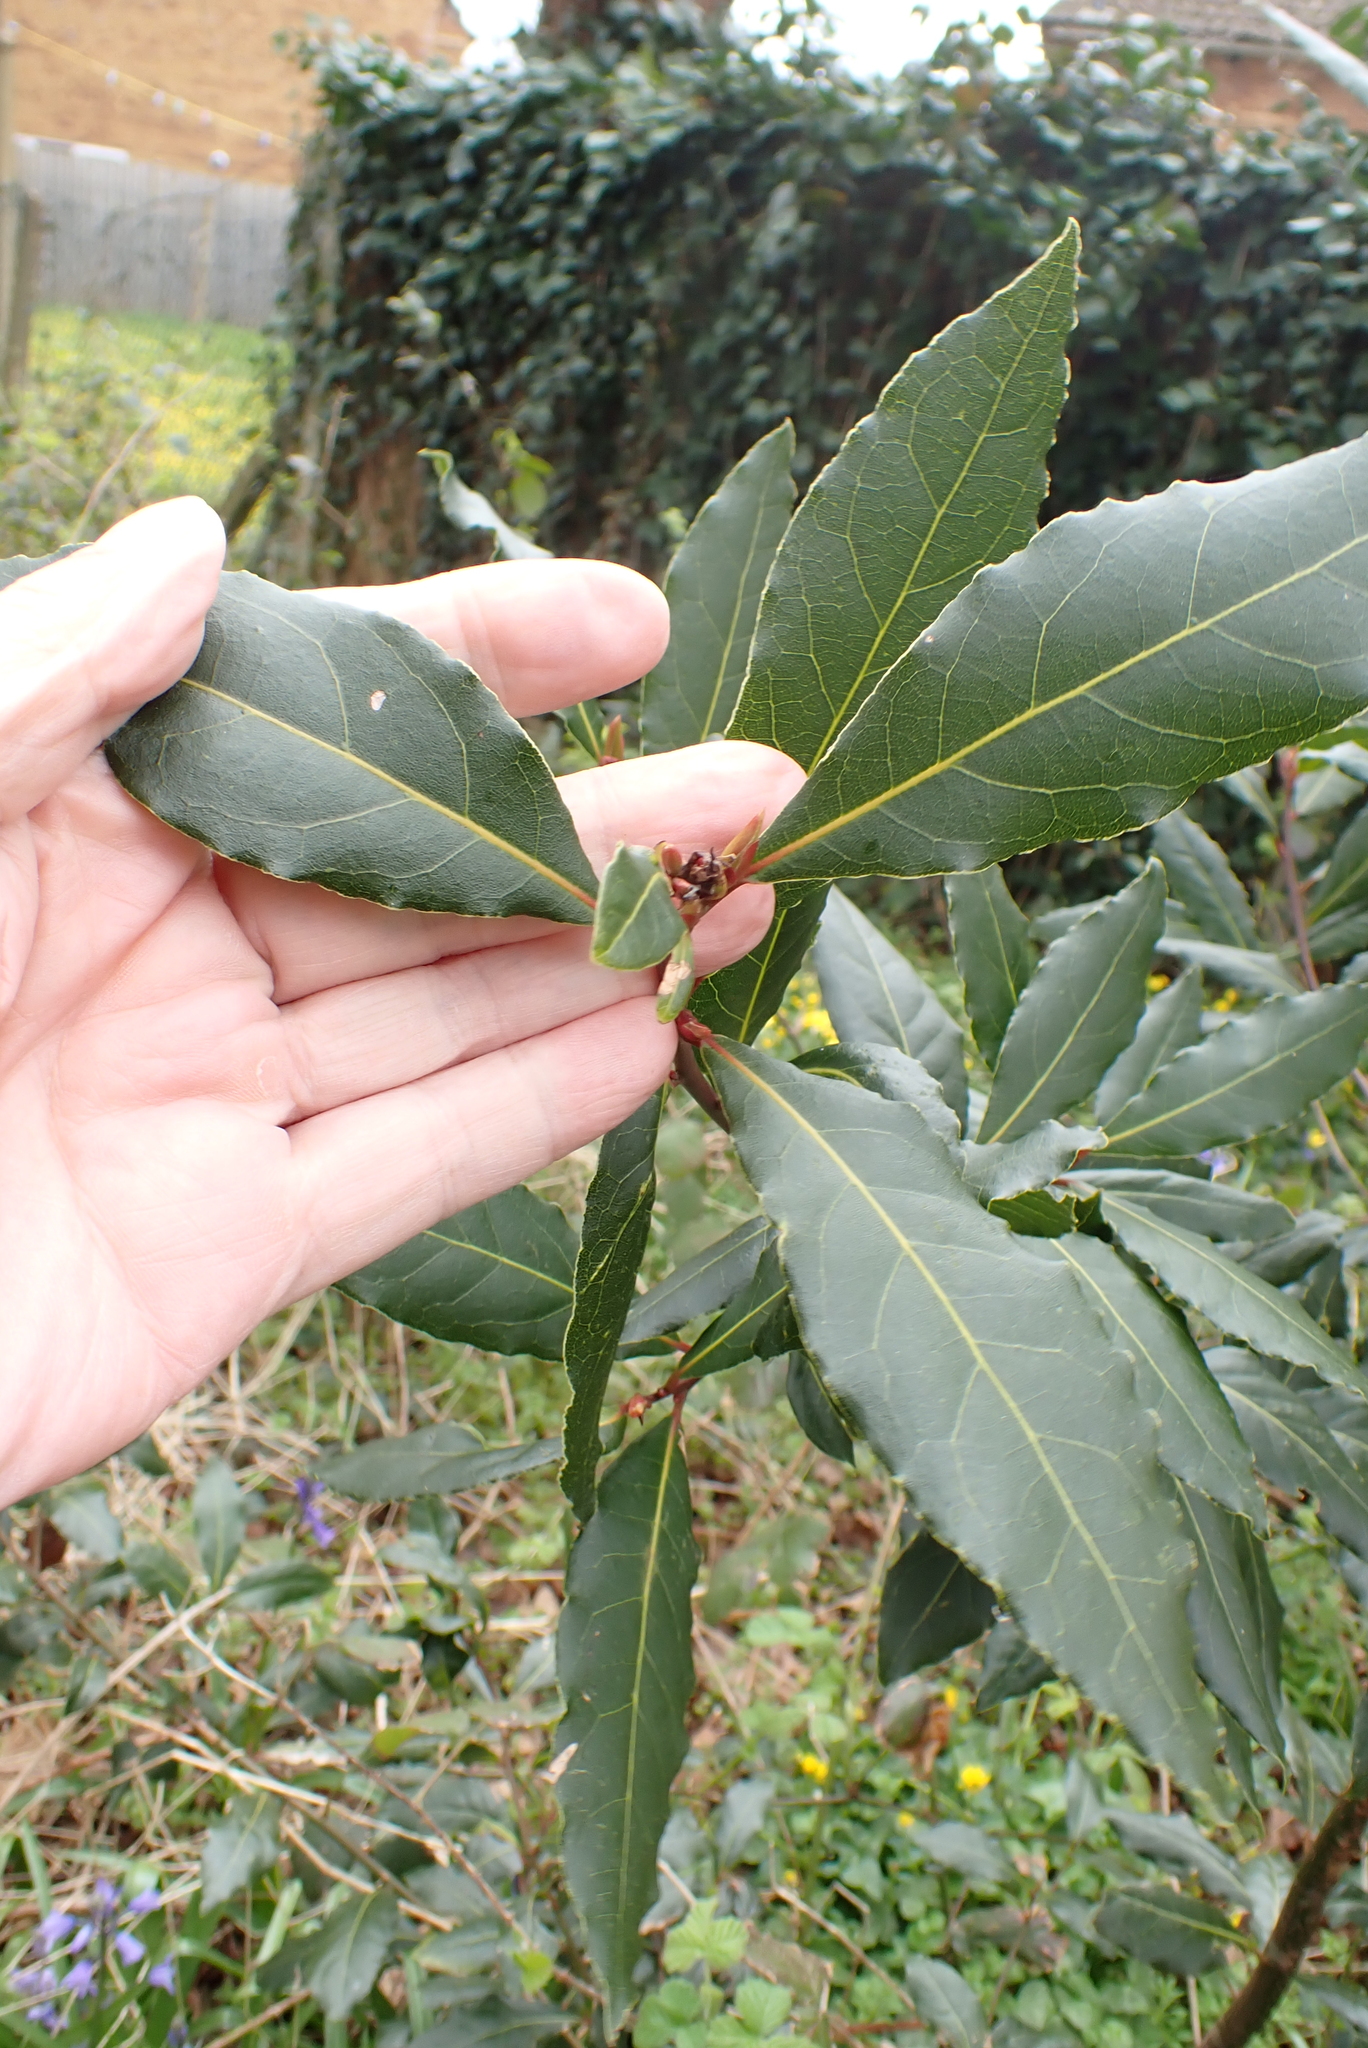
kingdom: Plantae
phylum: Tracheophyta
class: Magnoliopsida
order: Laurales
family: Lauraceae
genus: Laurus
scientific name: Laurus nobilis
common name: Bay
